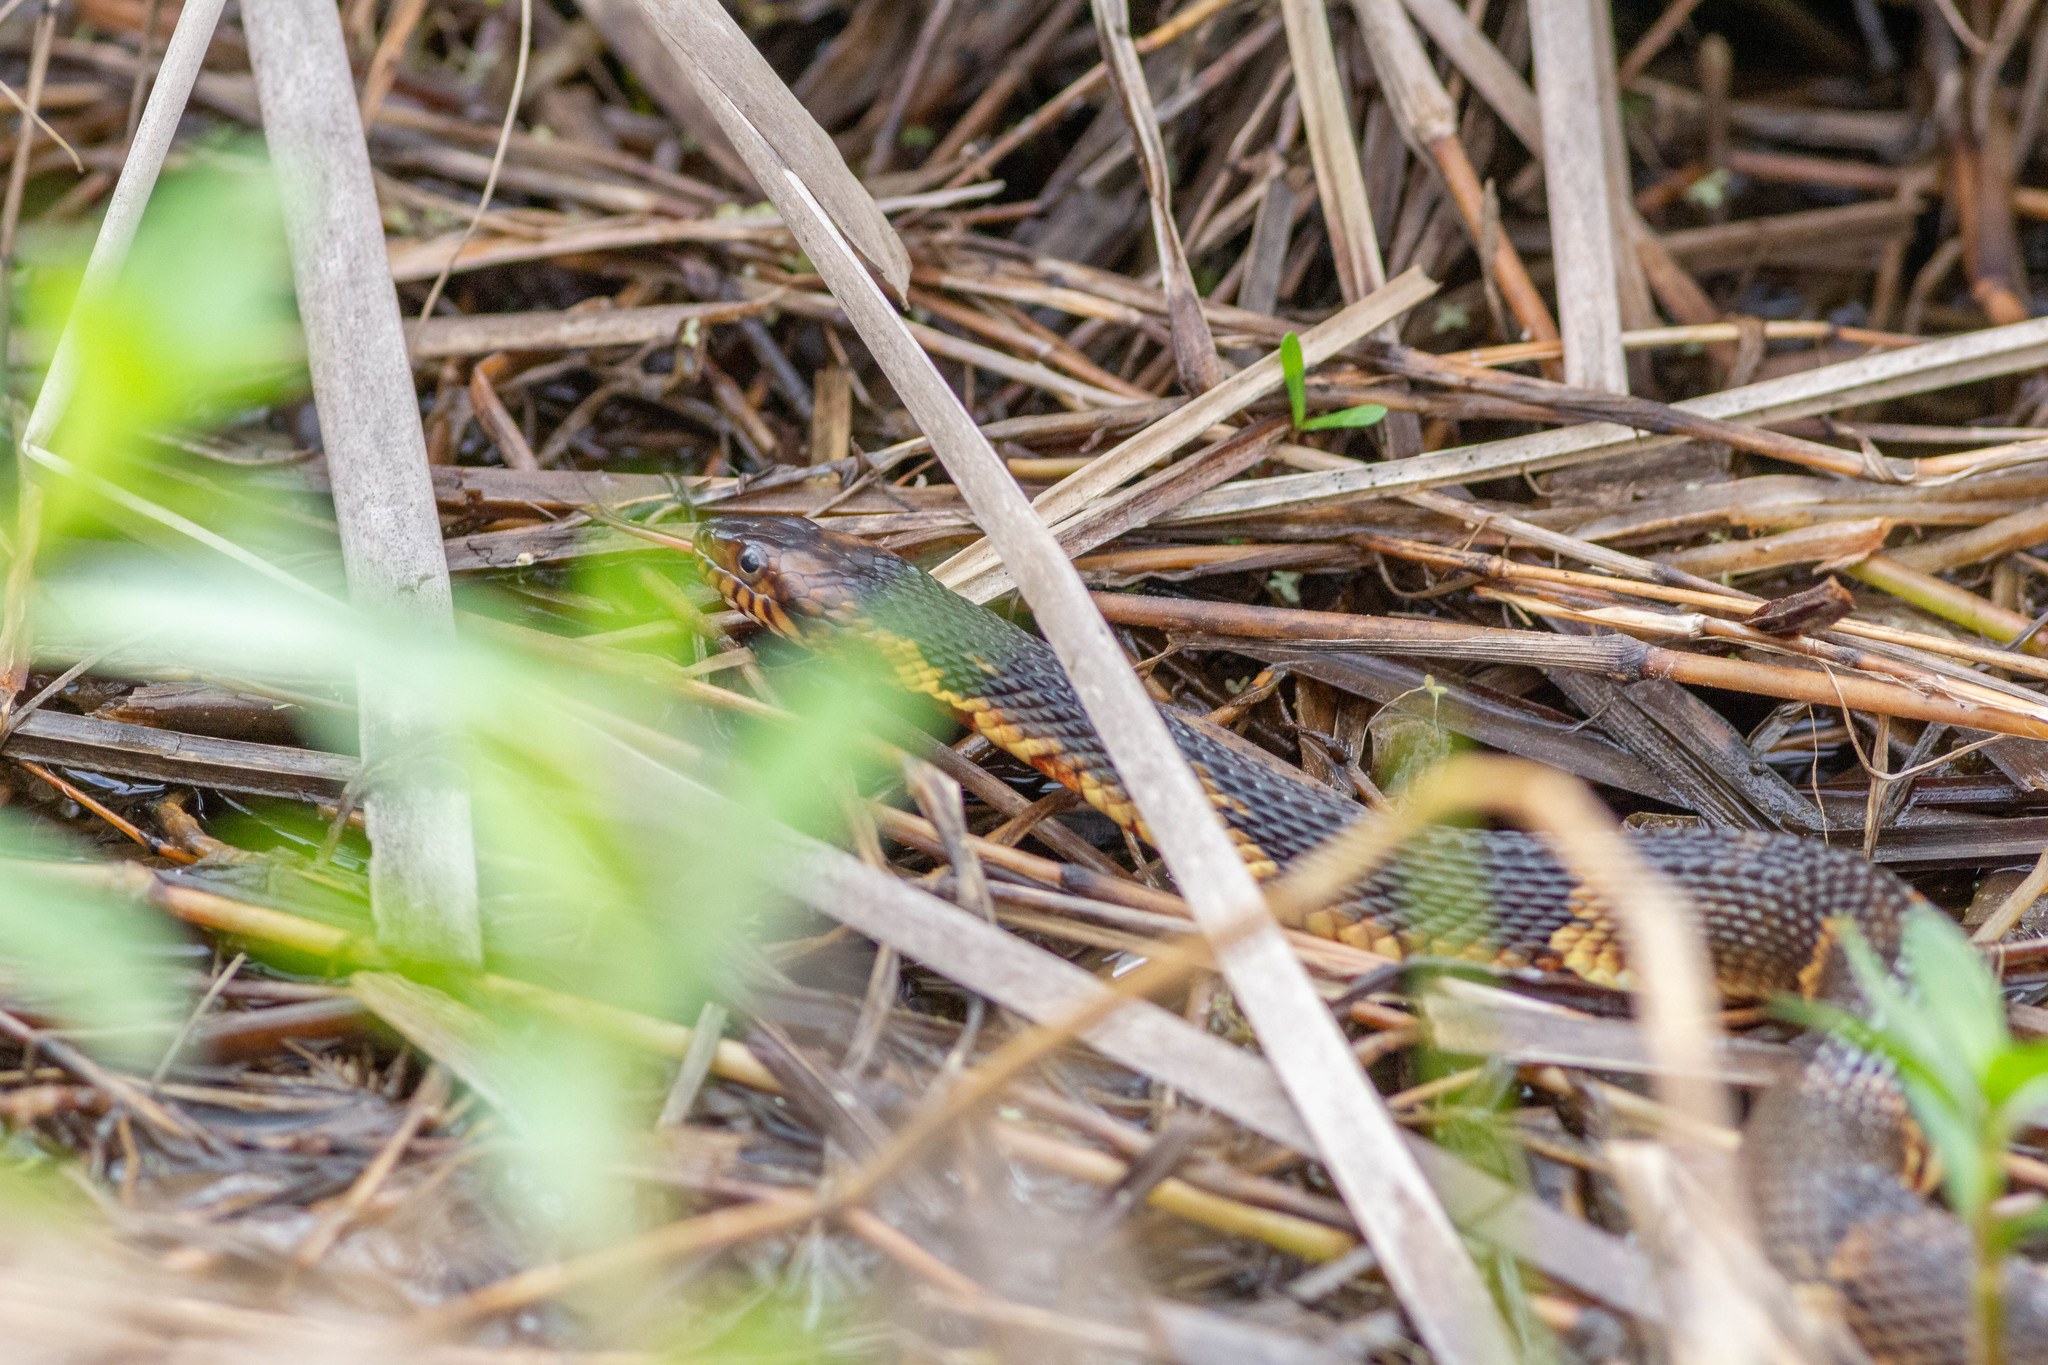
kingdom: Animalia
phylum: Chordata
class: Squamata
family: Colubridae
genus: Nerodia
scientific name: Nerodia fasciata
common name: Southern water snake
